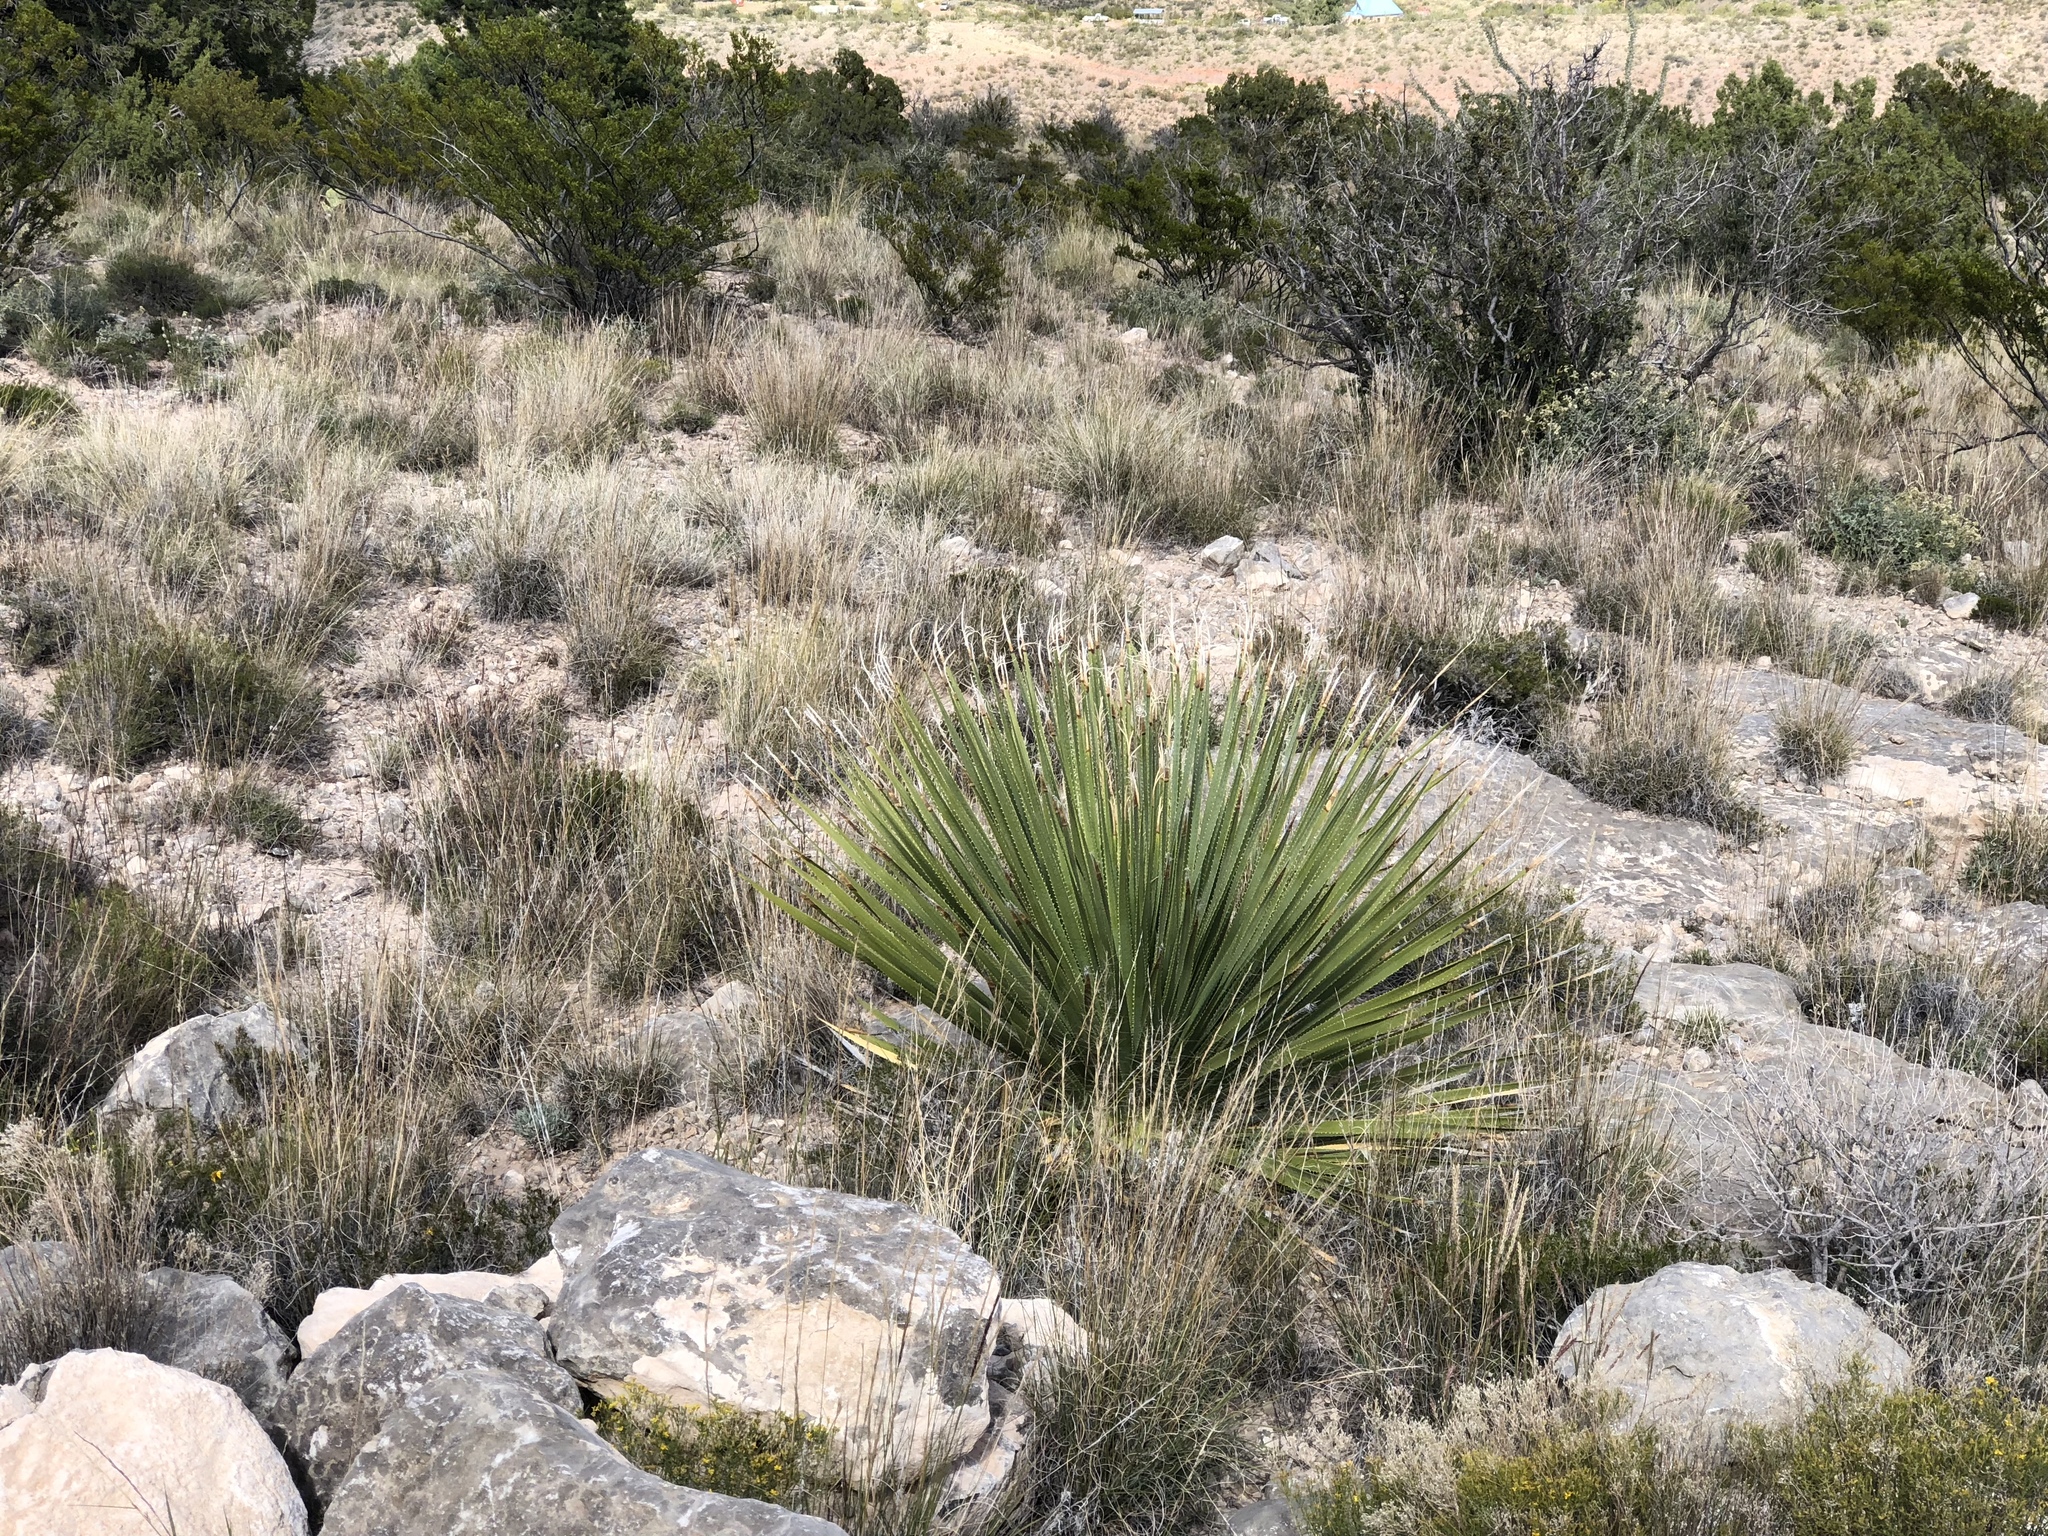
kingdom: Plantae
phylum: Tracheophyta
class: Liliopsida
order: Asparagales
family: Asparagaceae
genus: Dasylirion
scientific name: Dasylirion wheeleri
